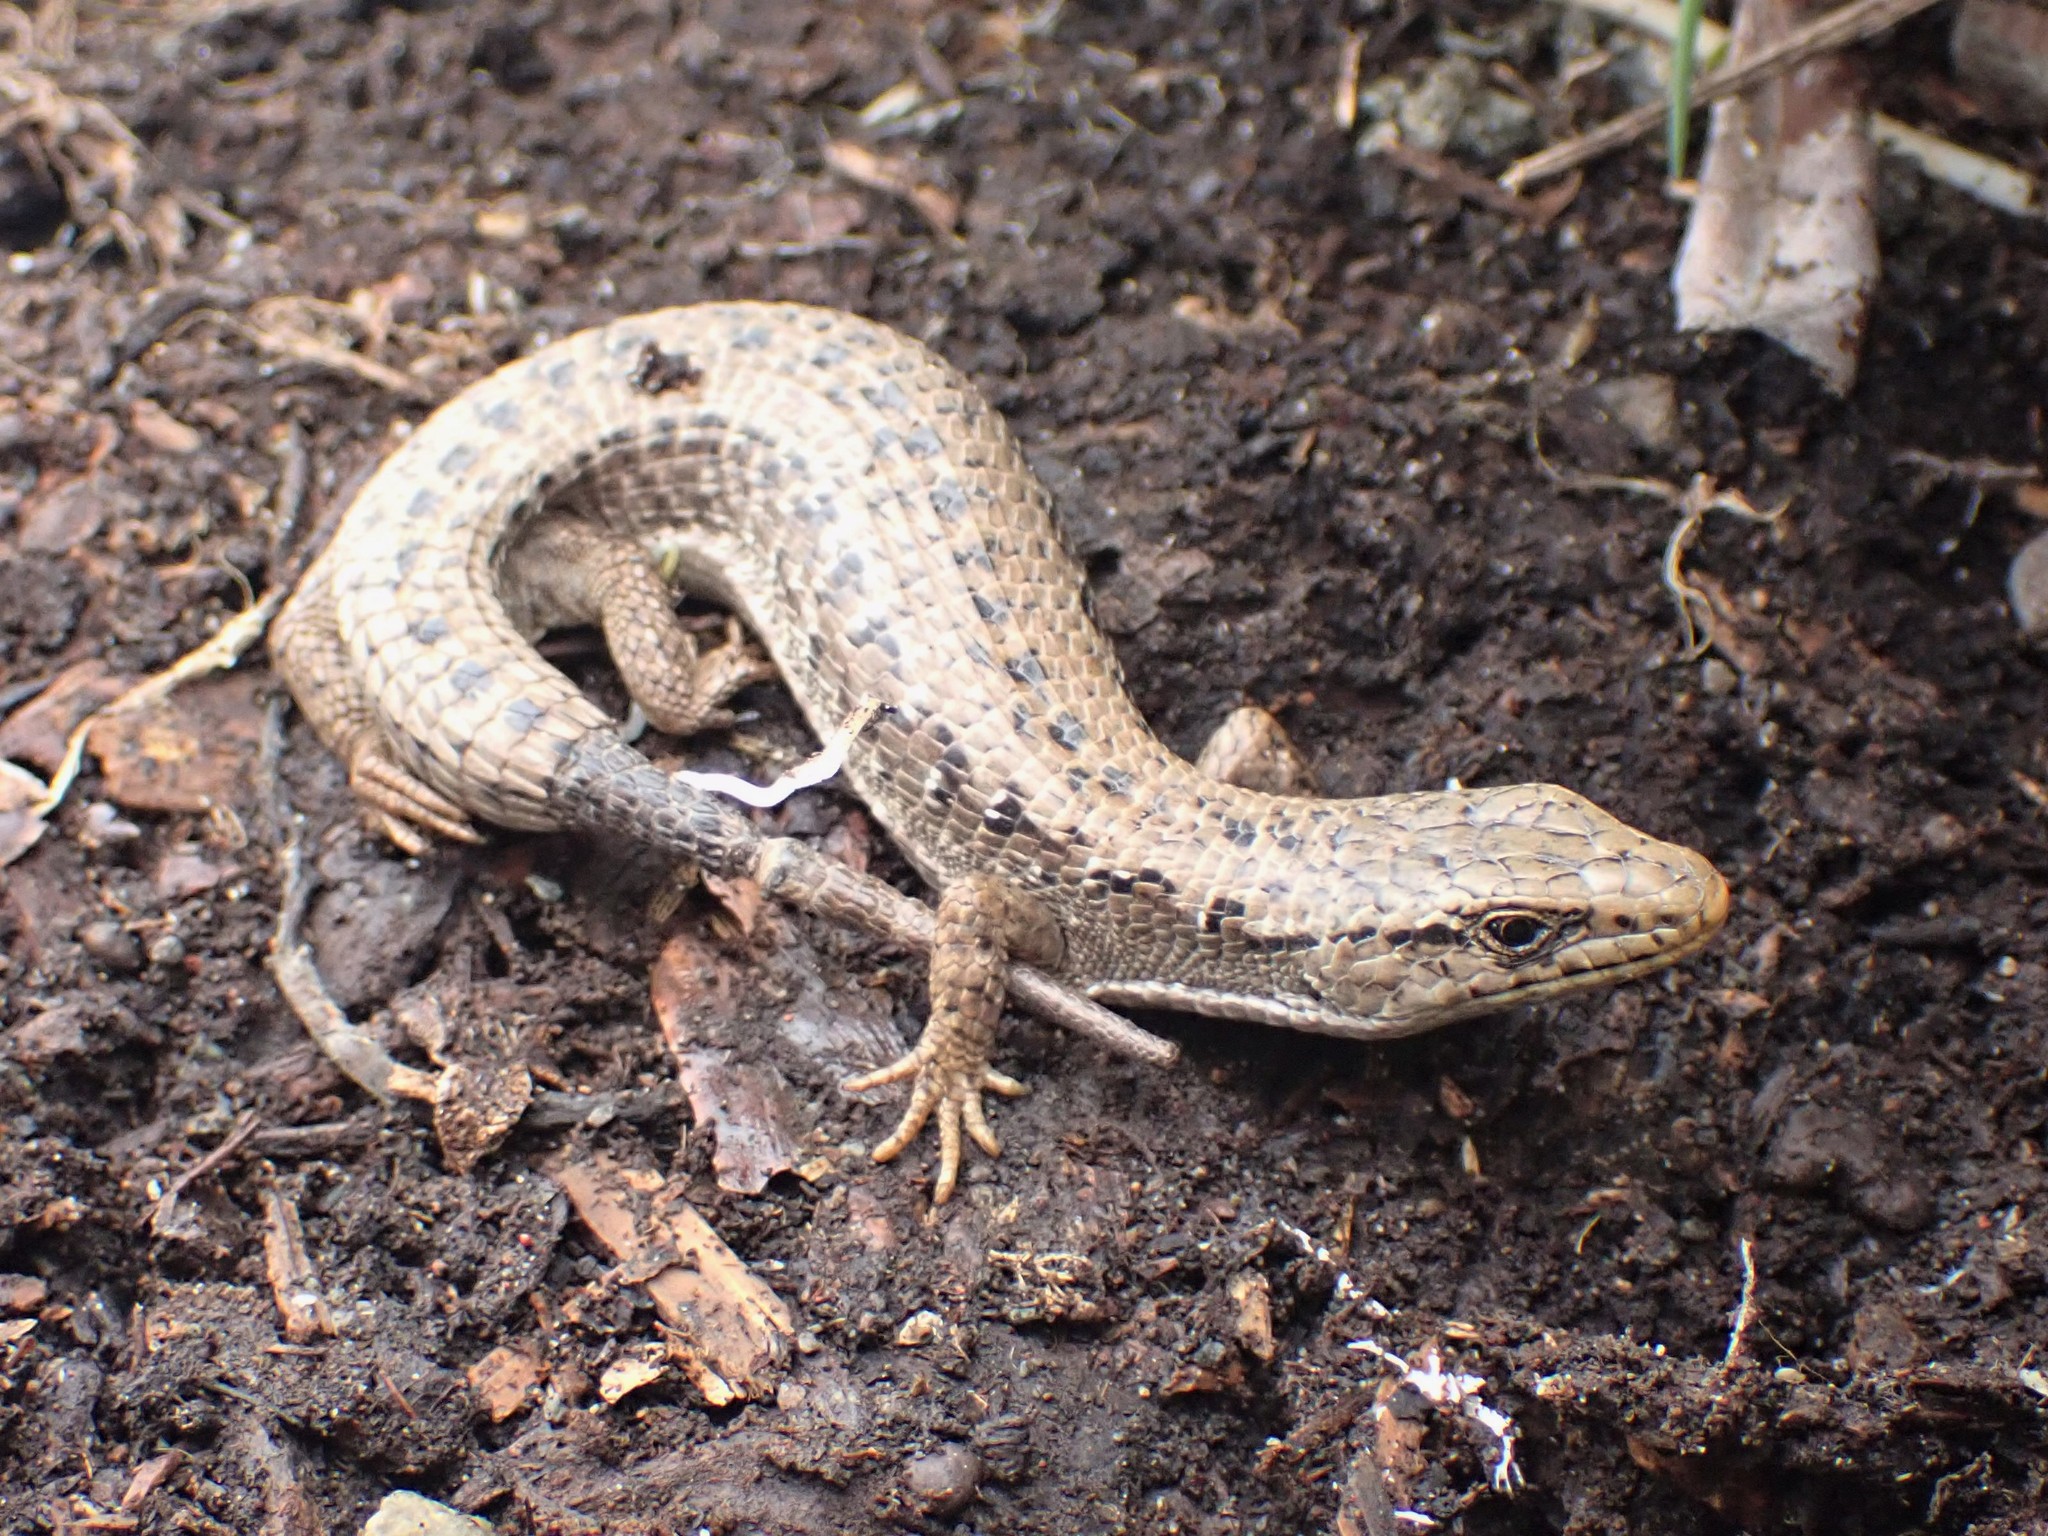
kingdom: Animalia
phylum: Chordata
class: Squamata
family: Anguidae
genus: Elgaria
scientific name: Elgaria coerulea
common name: Northern alligator lizard
